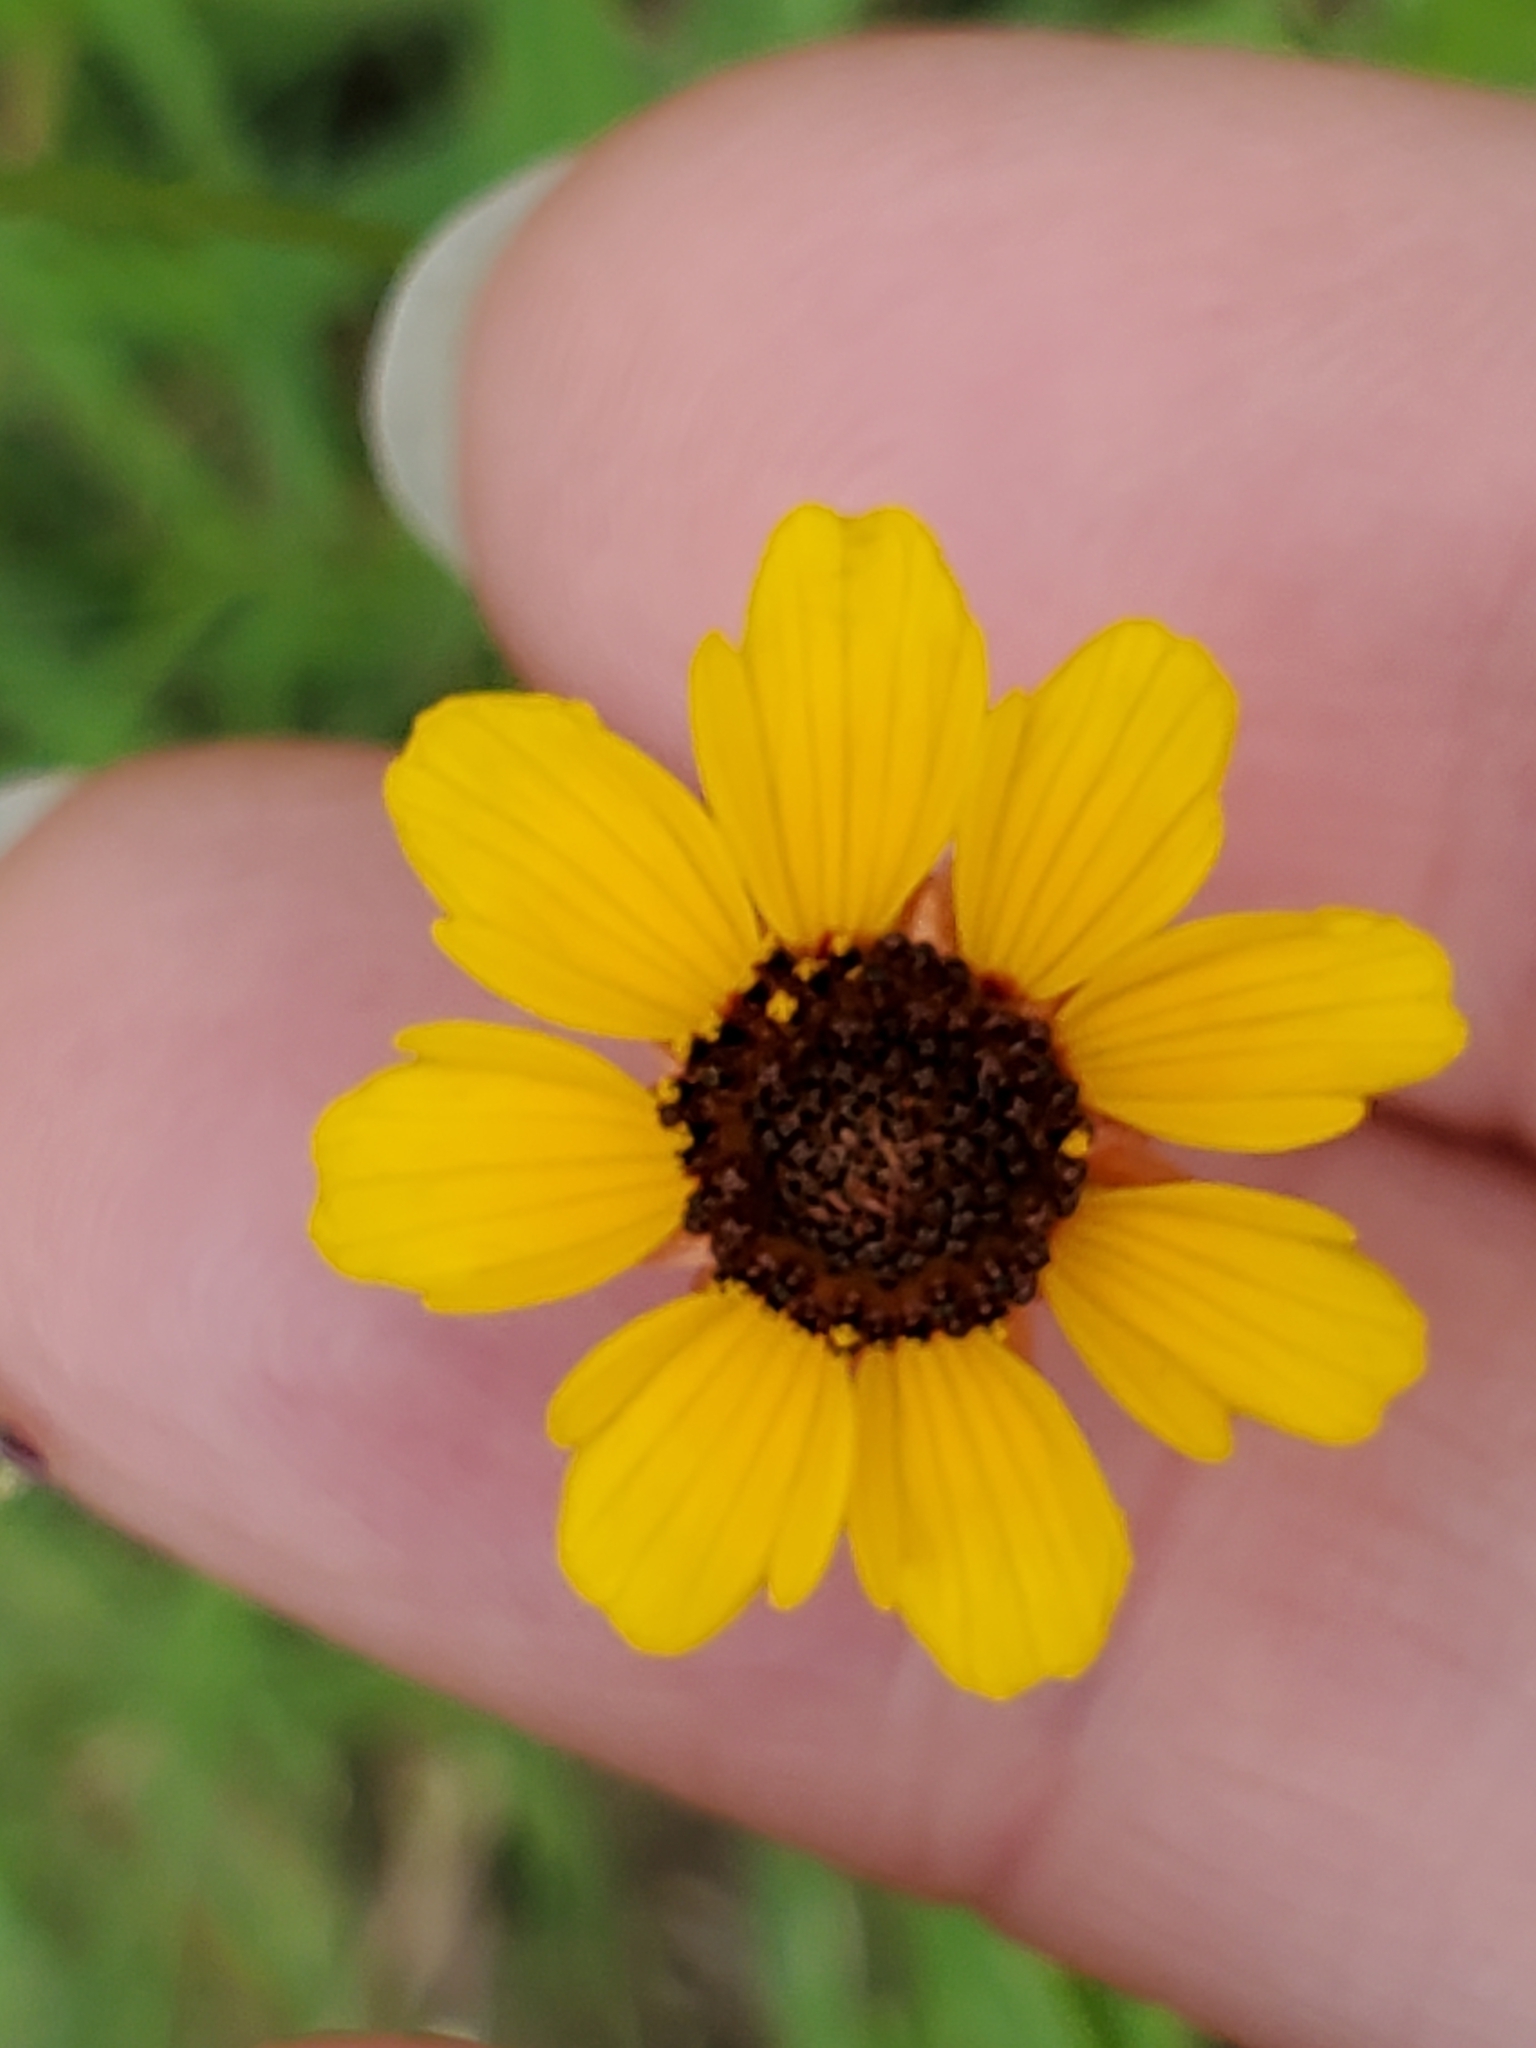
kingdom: Plantae
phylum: Tracheophyta
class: Magnoliopsida
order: Asterales
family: Asteraceae
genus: Thelesperma
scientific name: Thelesperma filifolium
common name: Stiff greenthread
